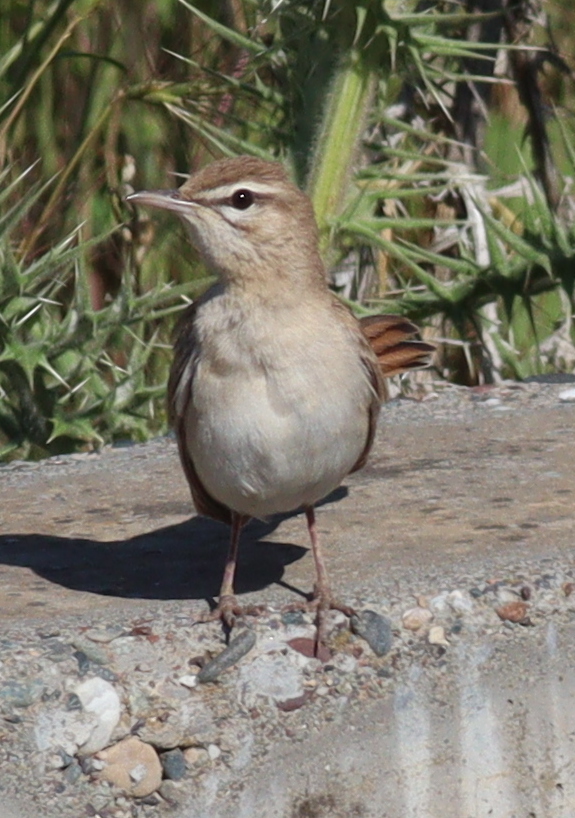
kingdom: Animalia
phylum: Chordata
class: Aves
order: Passeriformes
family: Muscicapidae
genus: Erythropygia
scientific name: Erythropygia galactotes
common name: Rufous-tailed scrub robin
